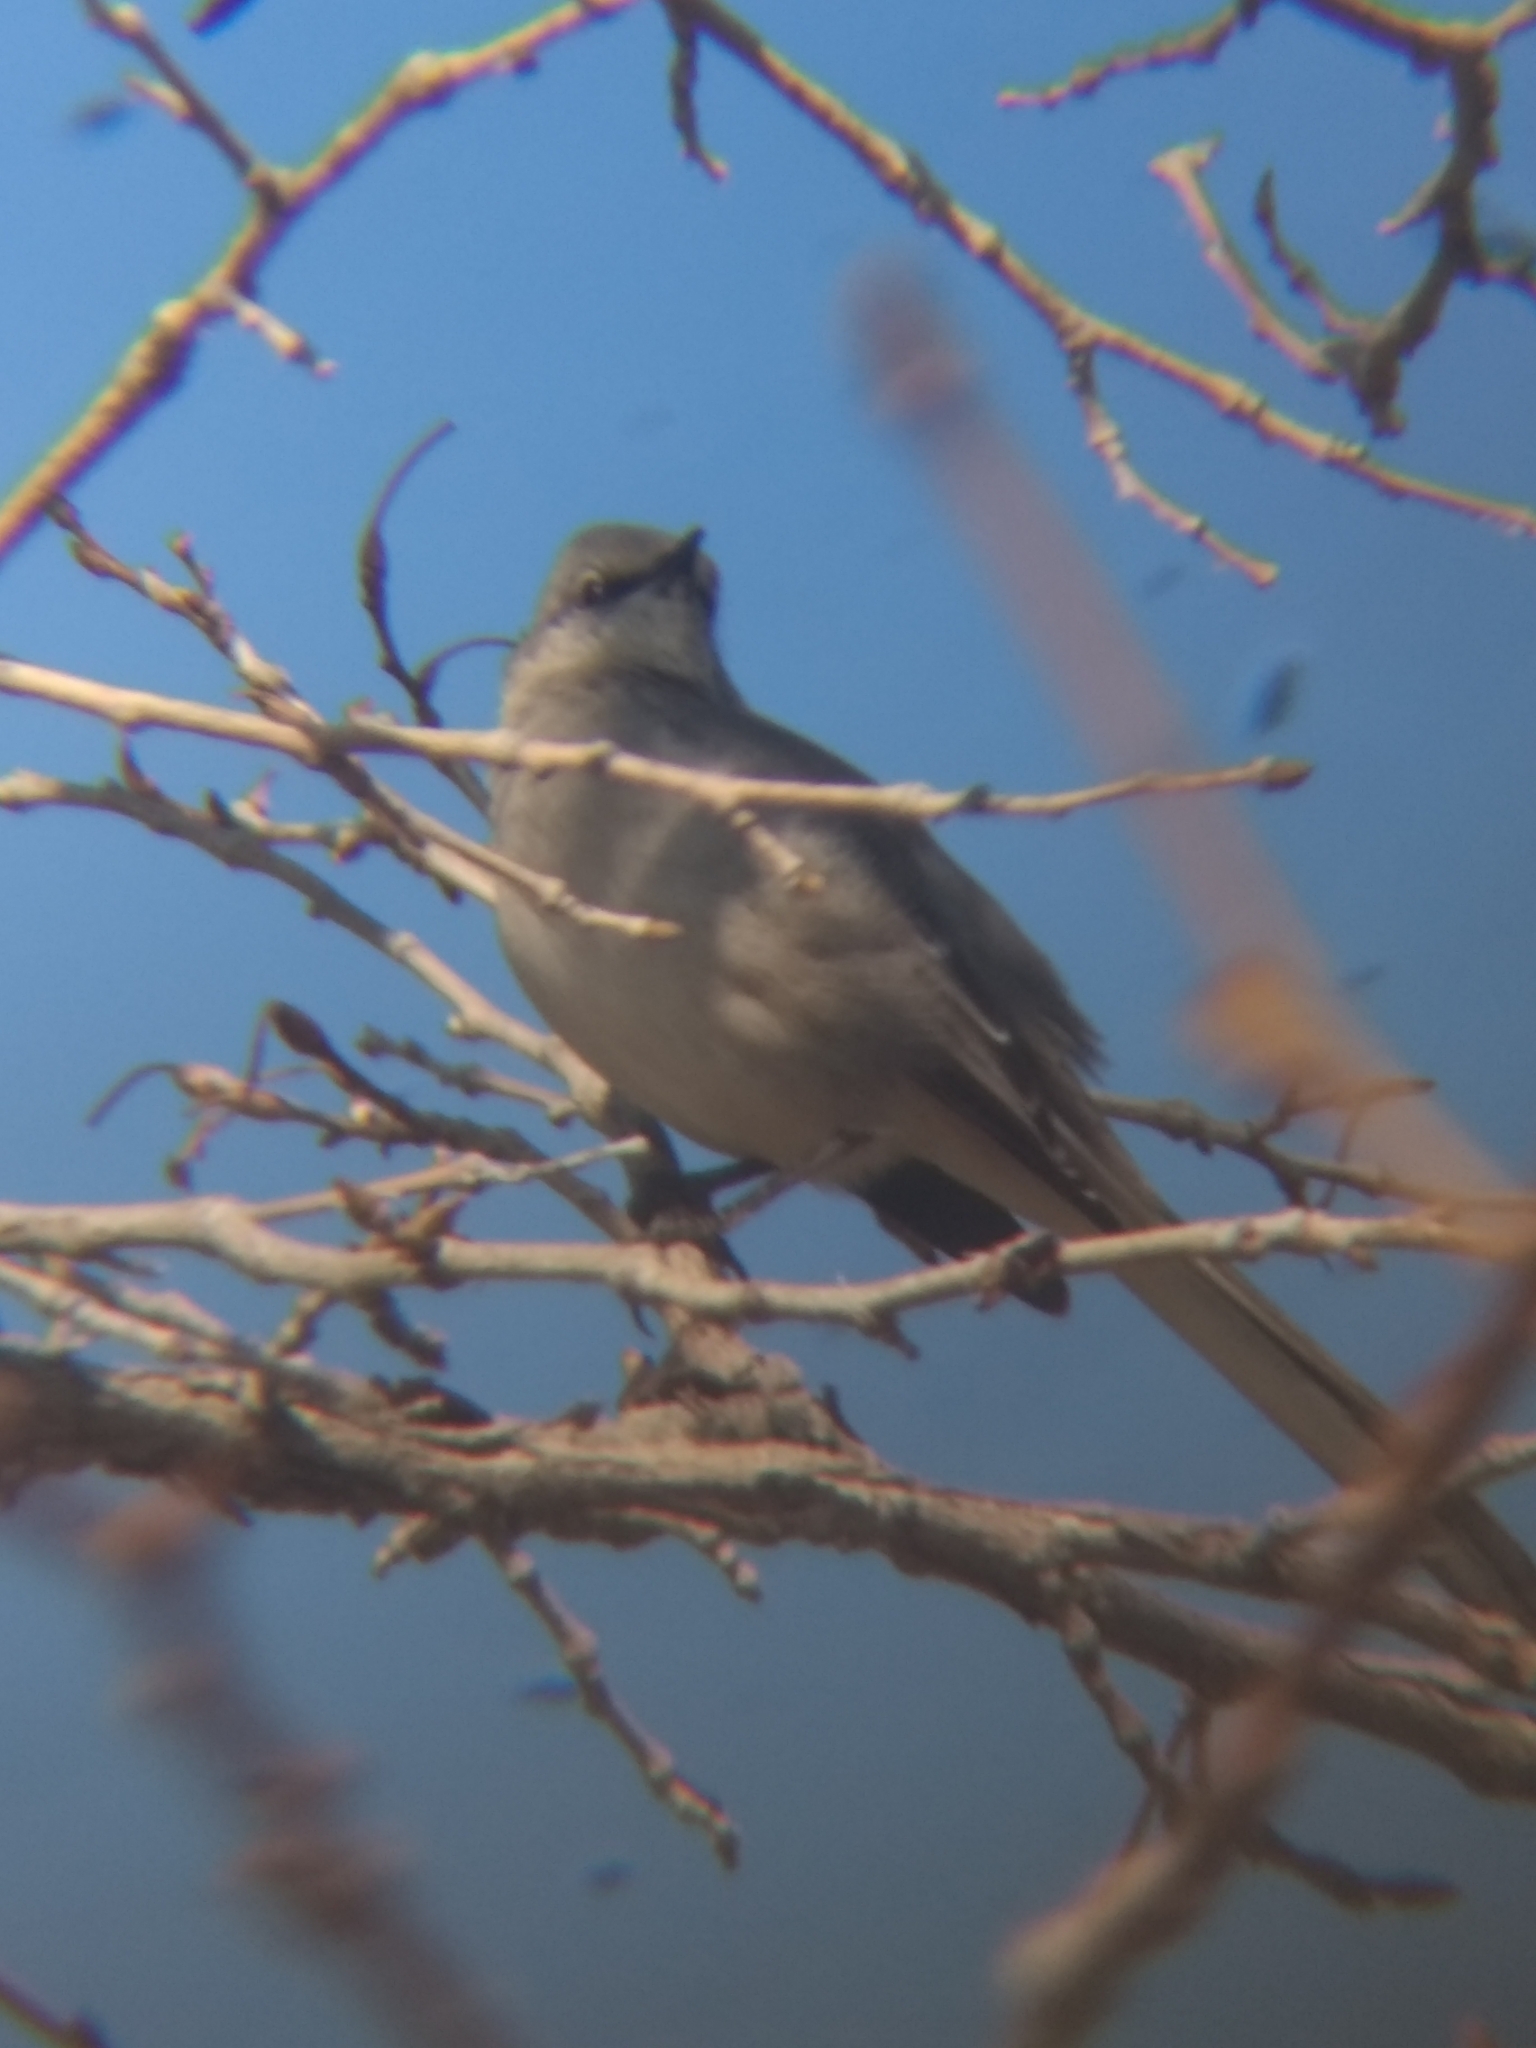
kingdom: Animalia
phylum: Chordata
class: Aves
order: Passeriformes
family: Mimidae
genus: Mimus
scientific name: Mimus polyglottos
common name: Northern mockingbird
